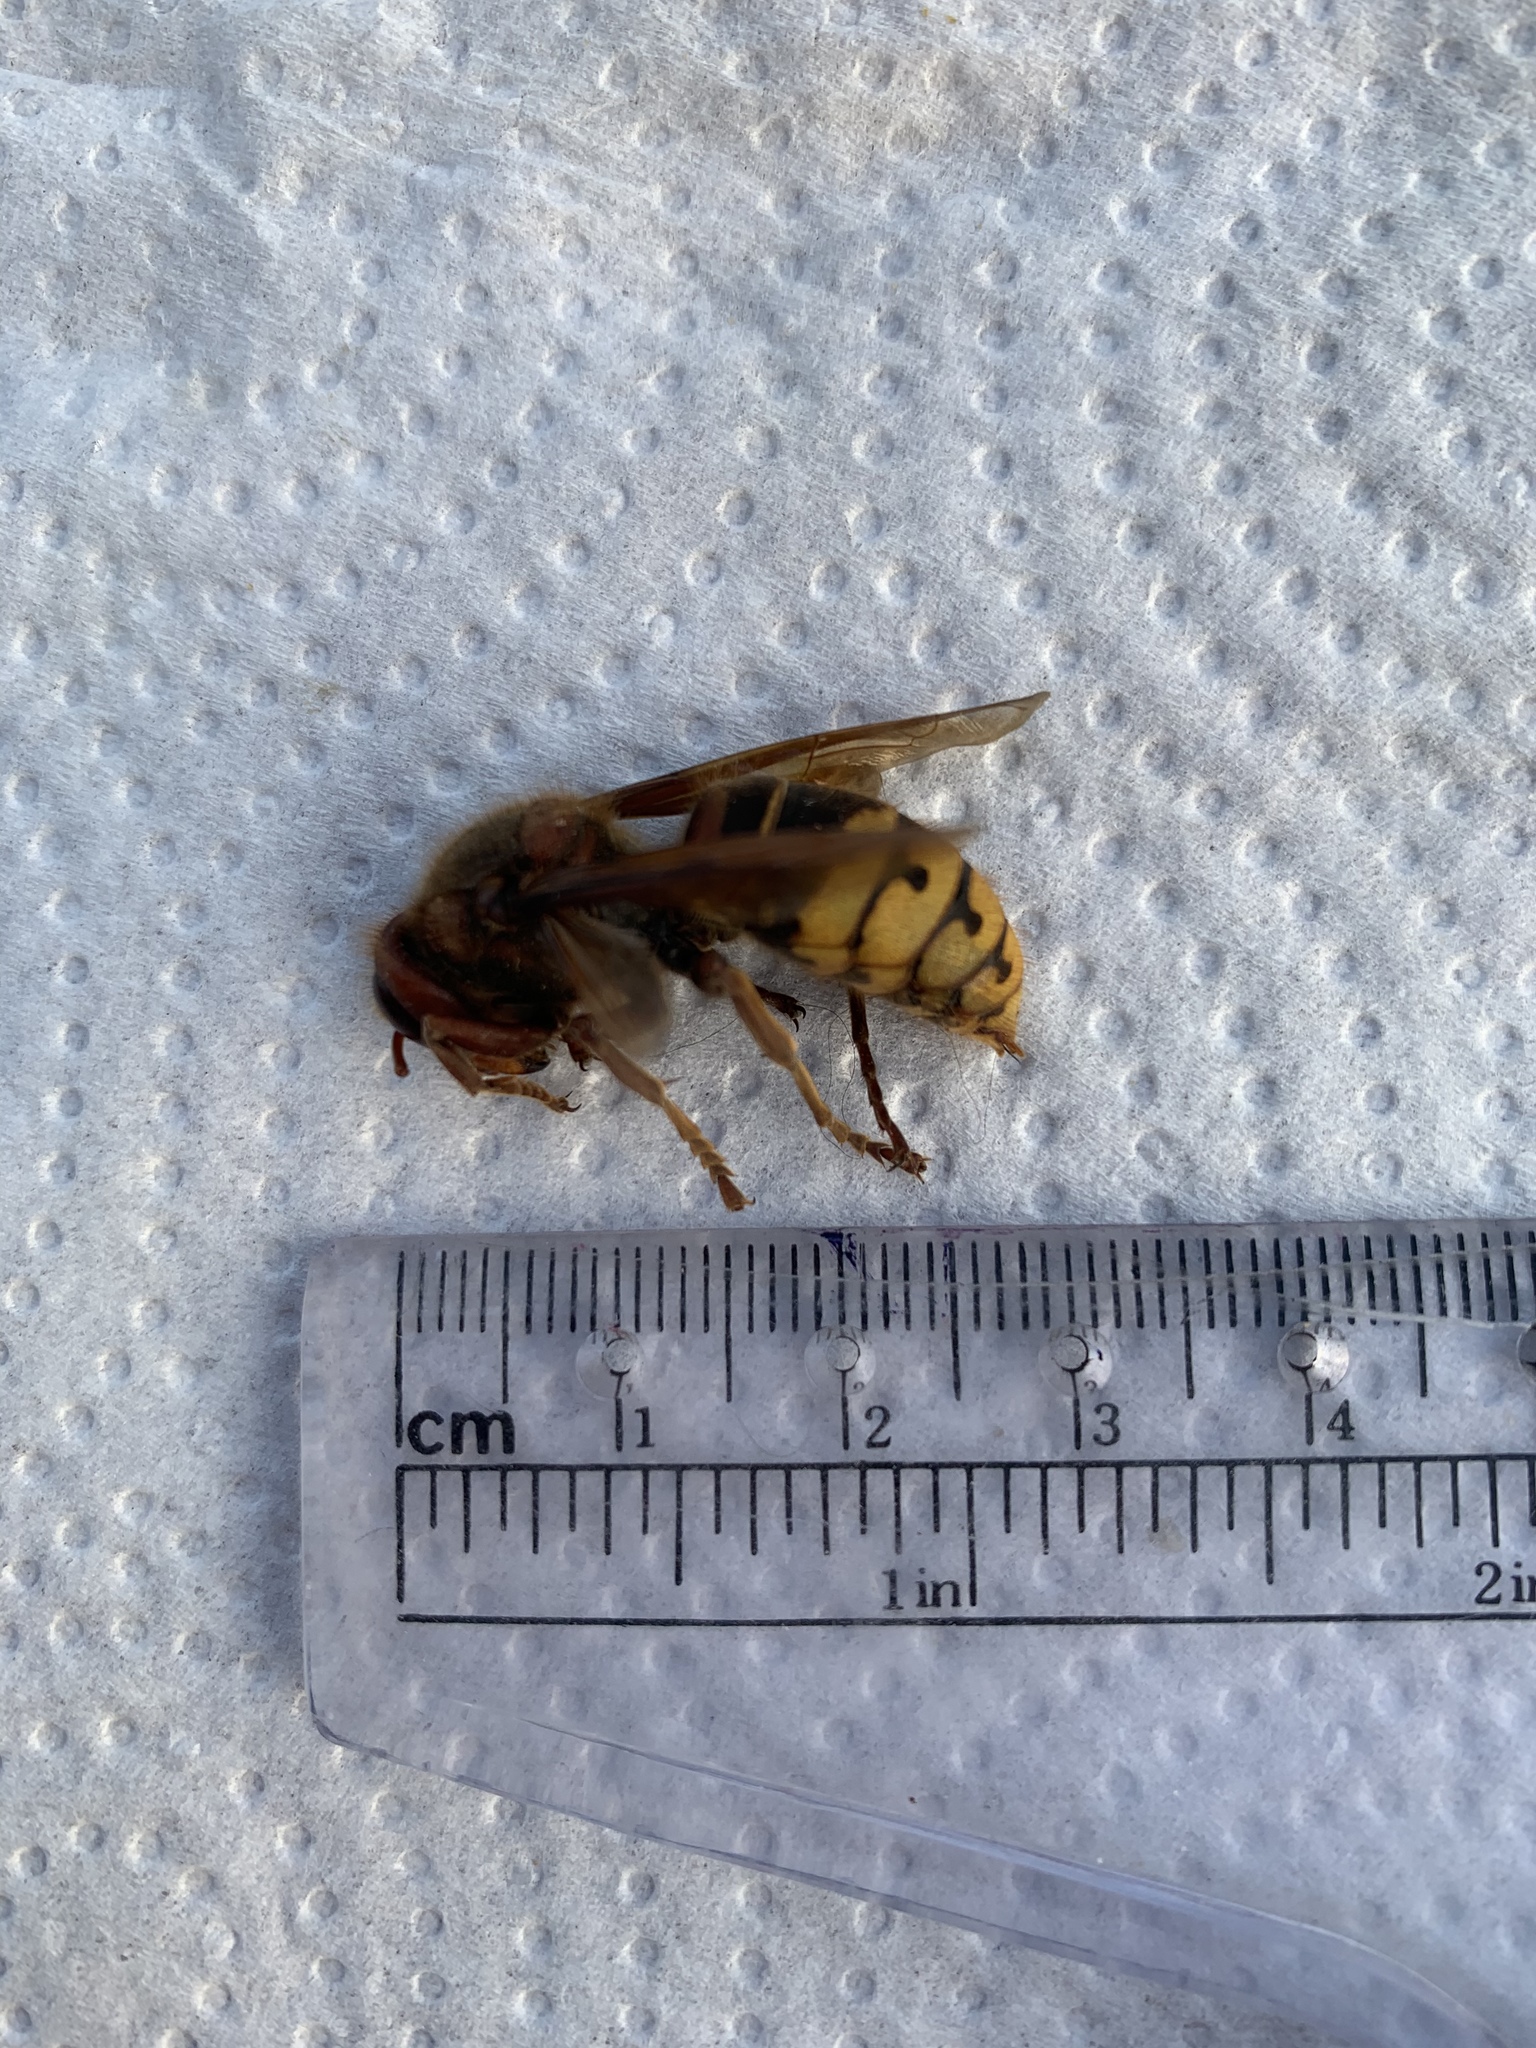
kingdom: Animalia
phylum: Arthropoda
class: Insecta
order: Hymenoptera
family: Vespidae
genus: Vespa
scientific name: Vespa crabro
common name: Hornet
